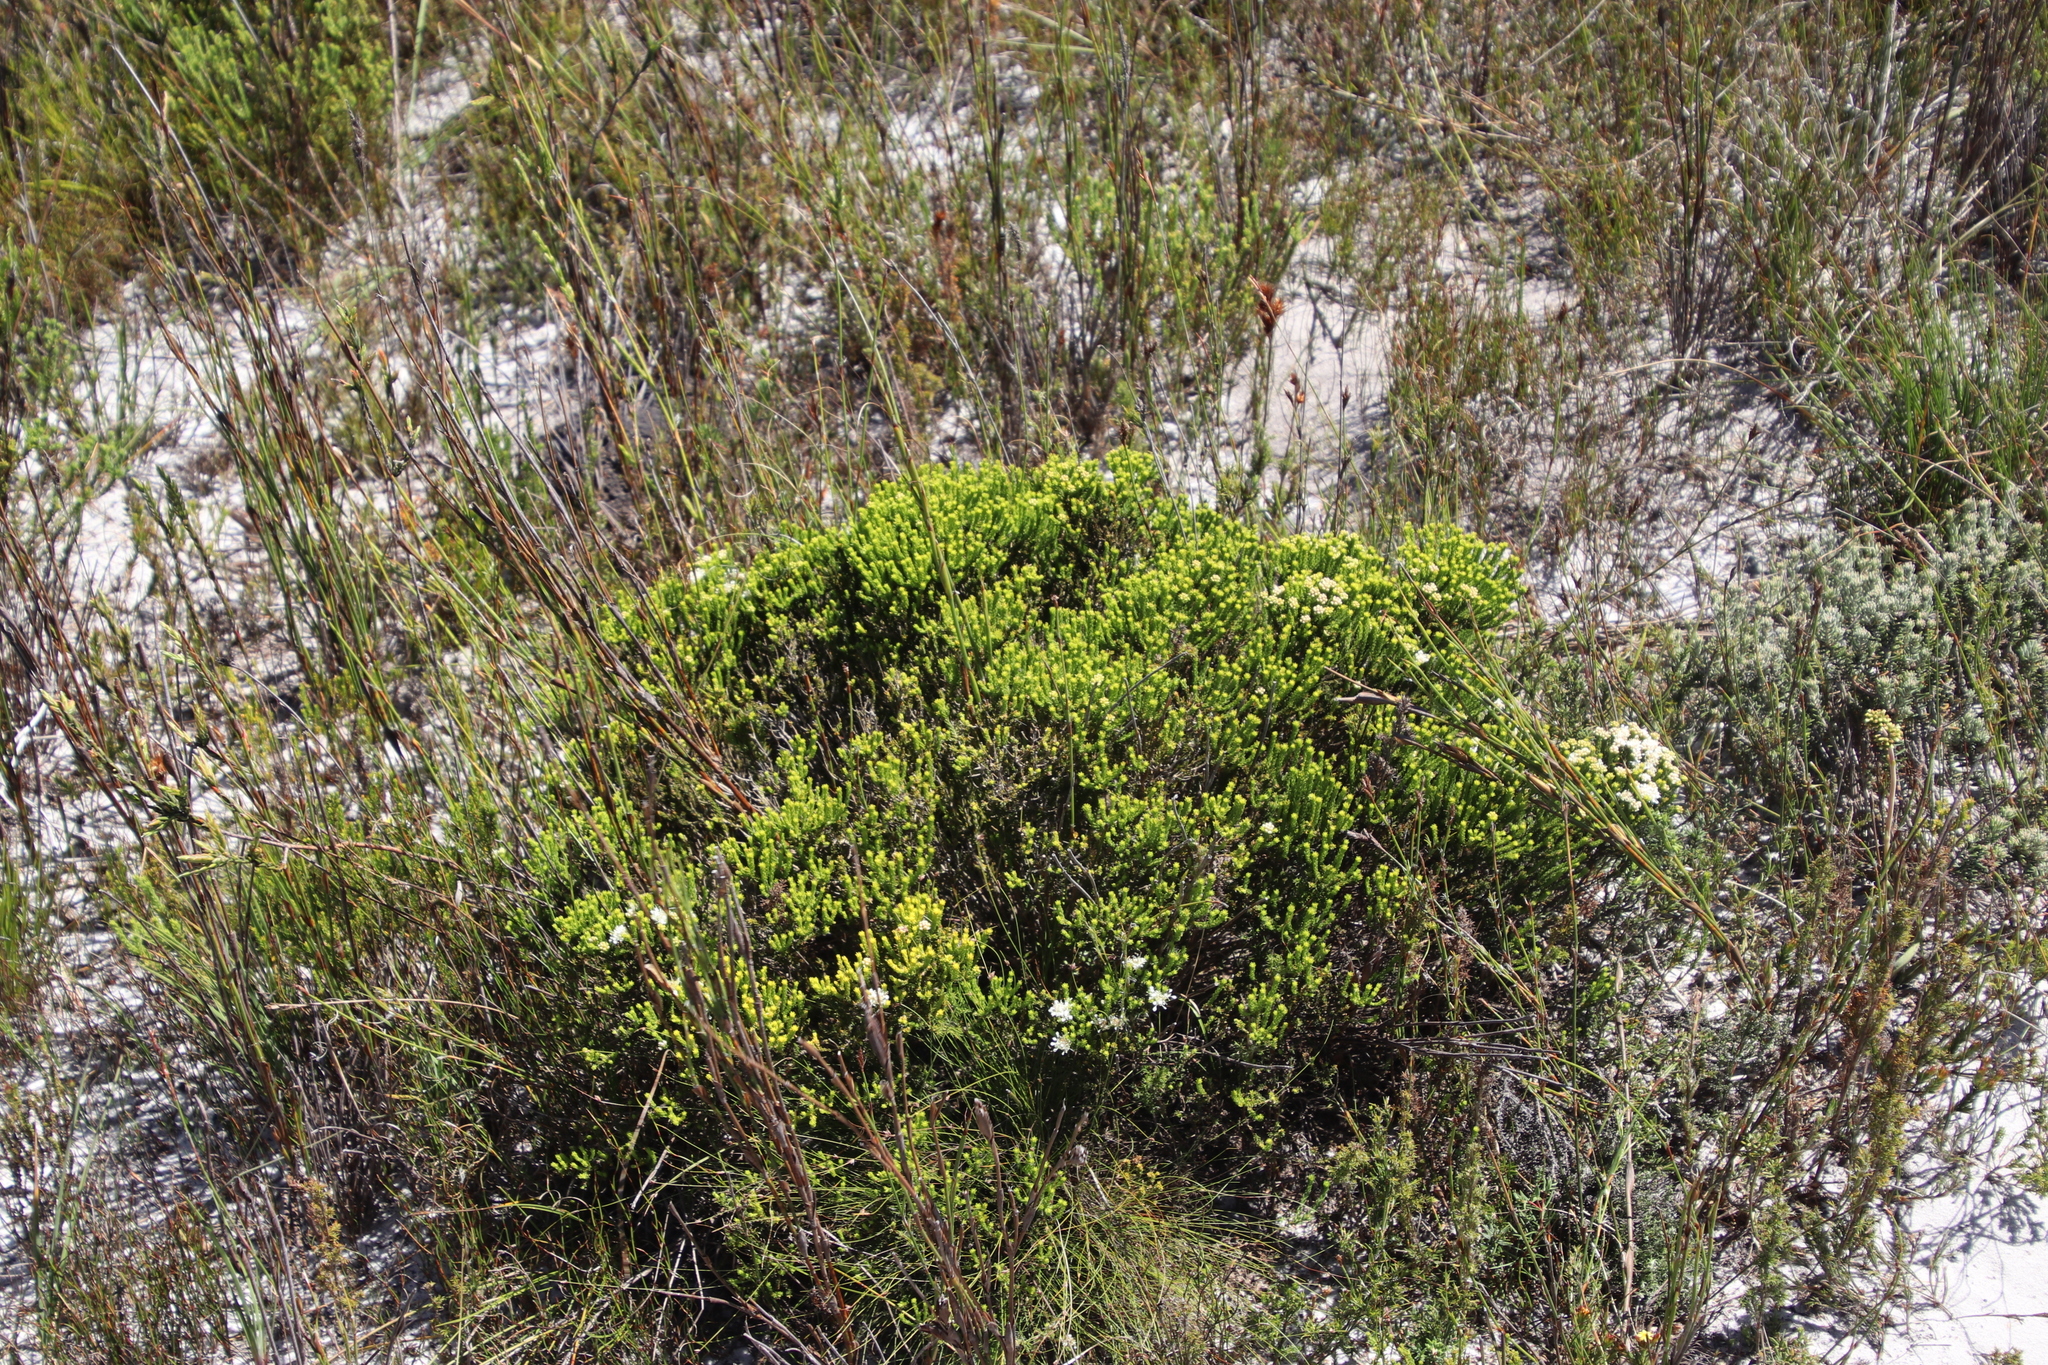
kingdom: Plantae
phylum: Tracheophyta
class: Magnoliopsida
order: Sapindales
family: Rutaceae
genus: Agathosma
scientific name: Agathosma imbricata
